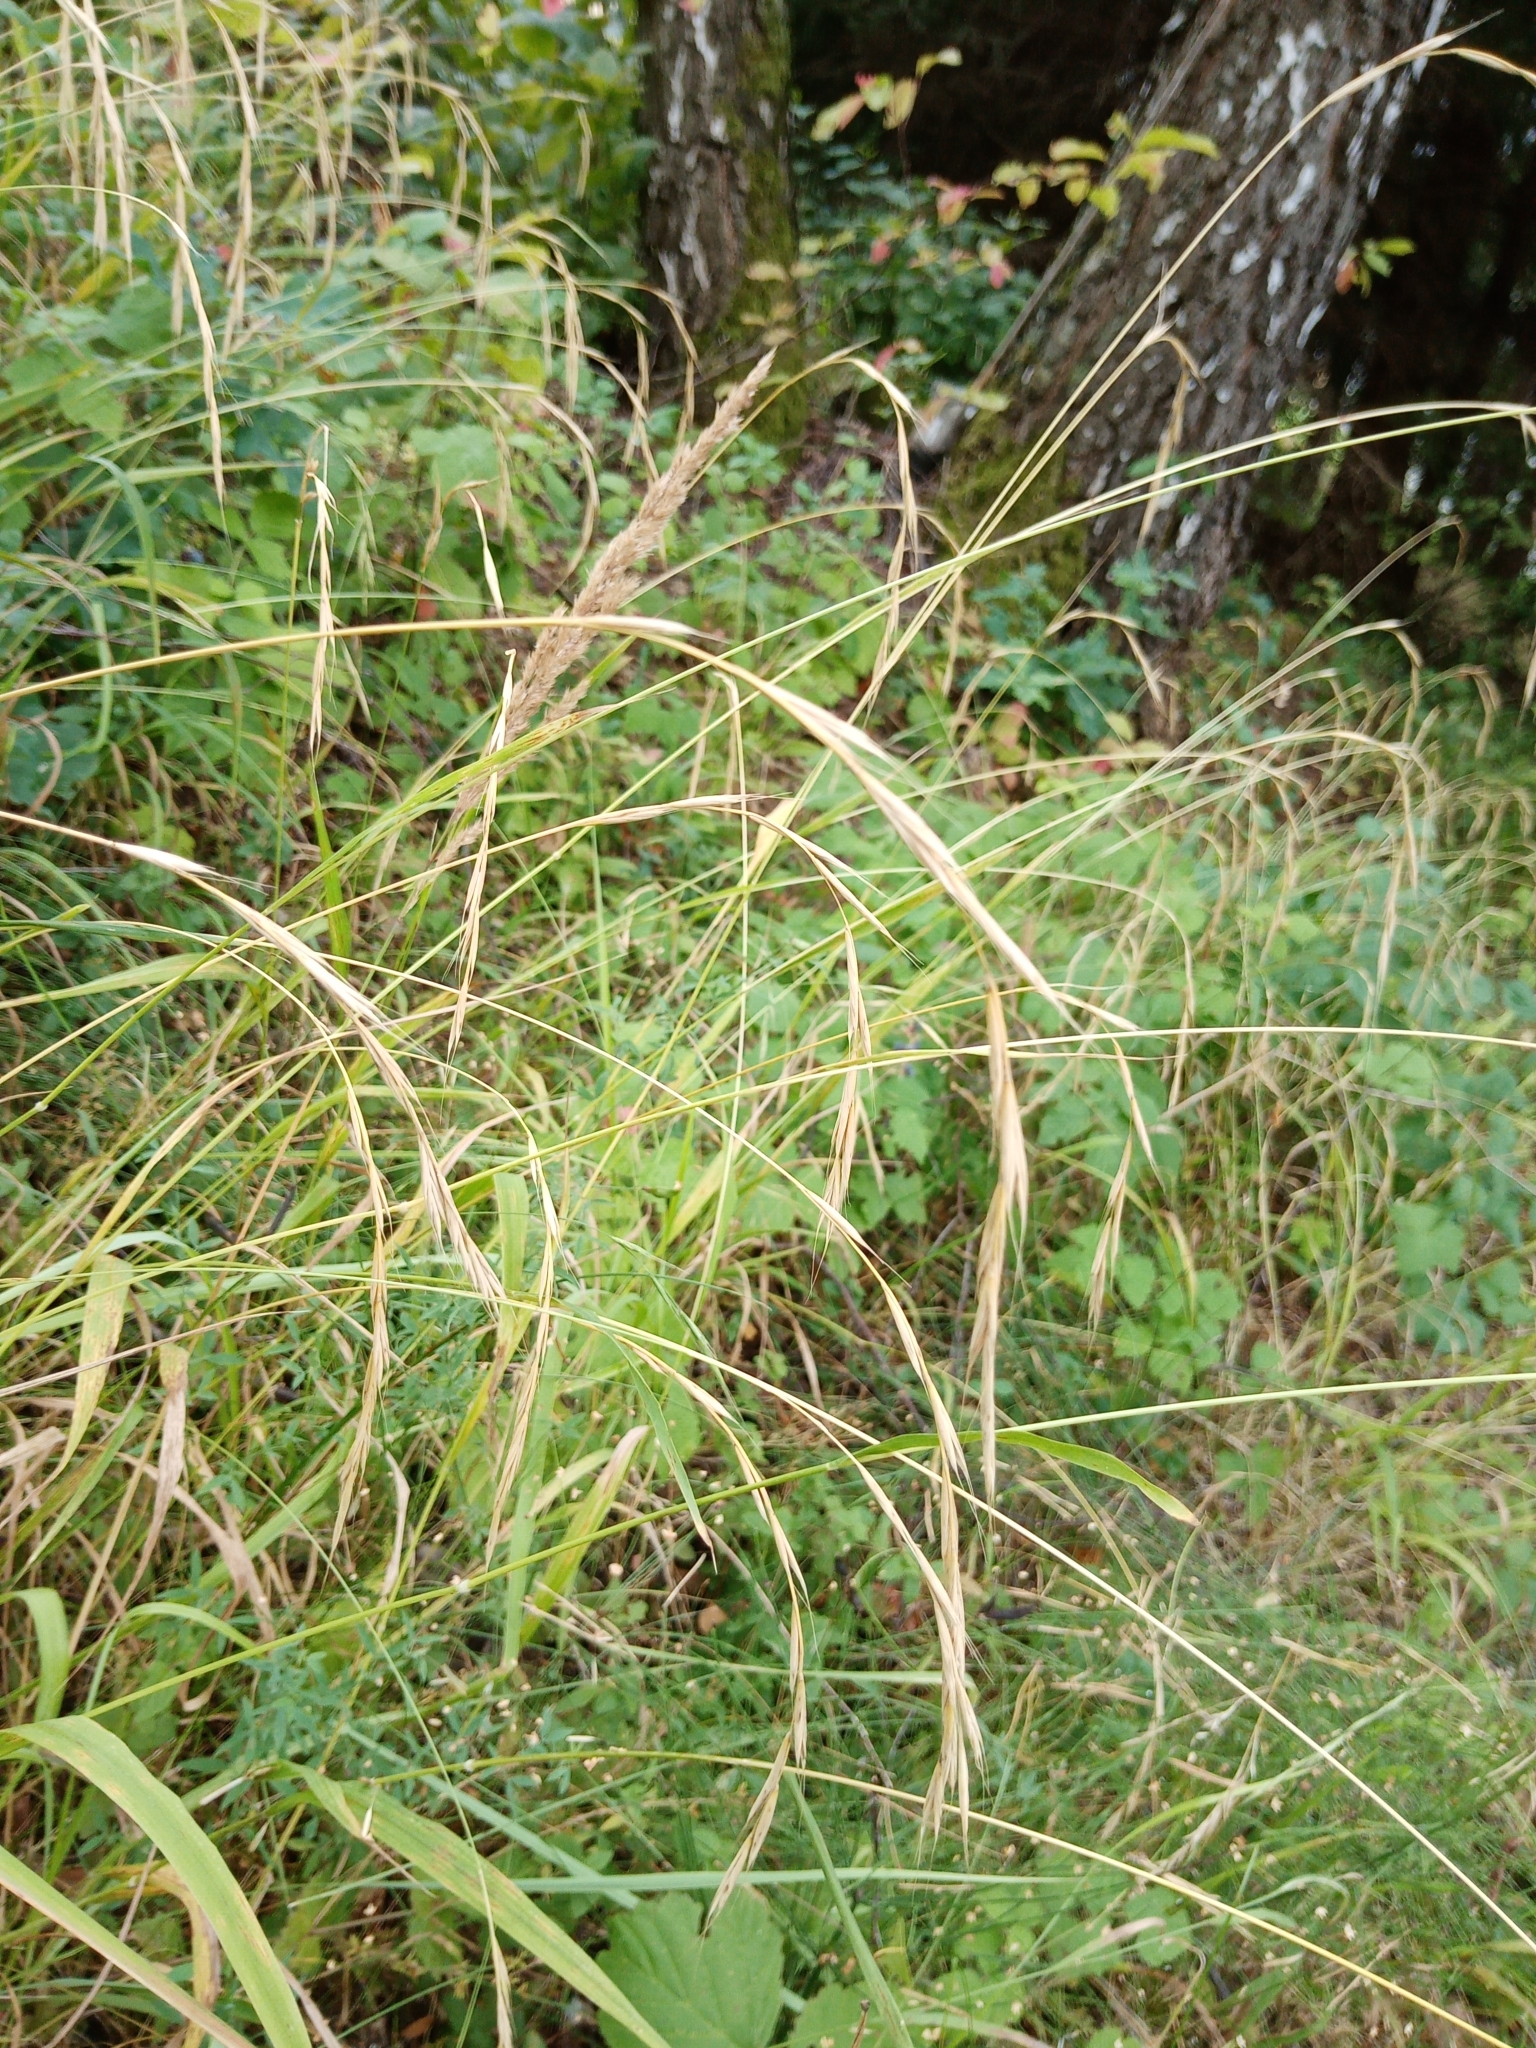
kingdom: Plantae
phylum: Tracheophyta
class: Liliopsida
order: Poales
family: Poaceae
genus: Brachypodium
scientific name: Brachypodium sylvaticum
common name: False-brome
